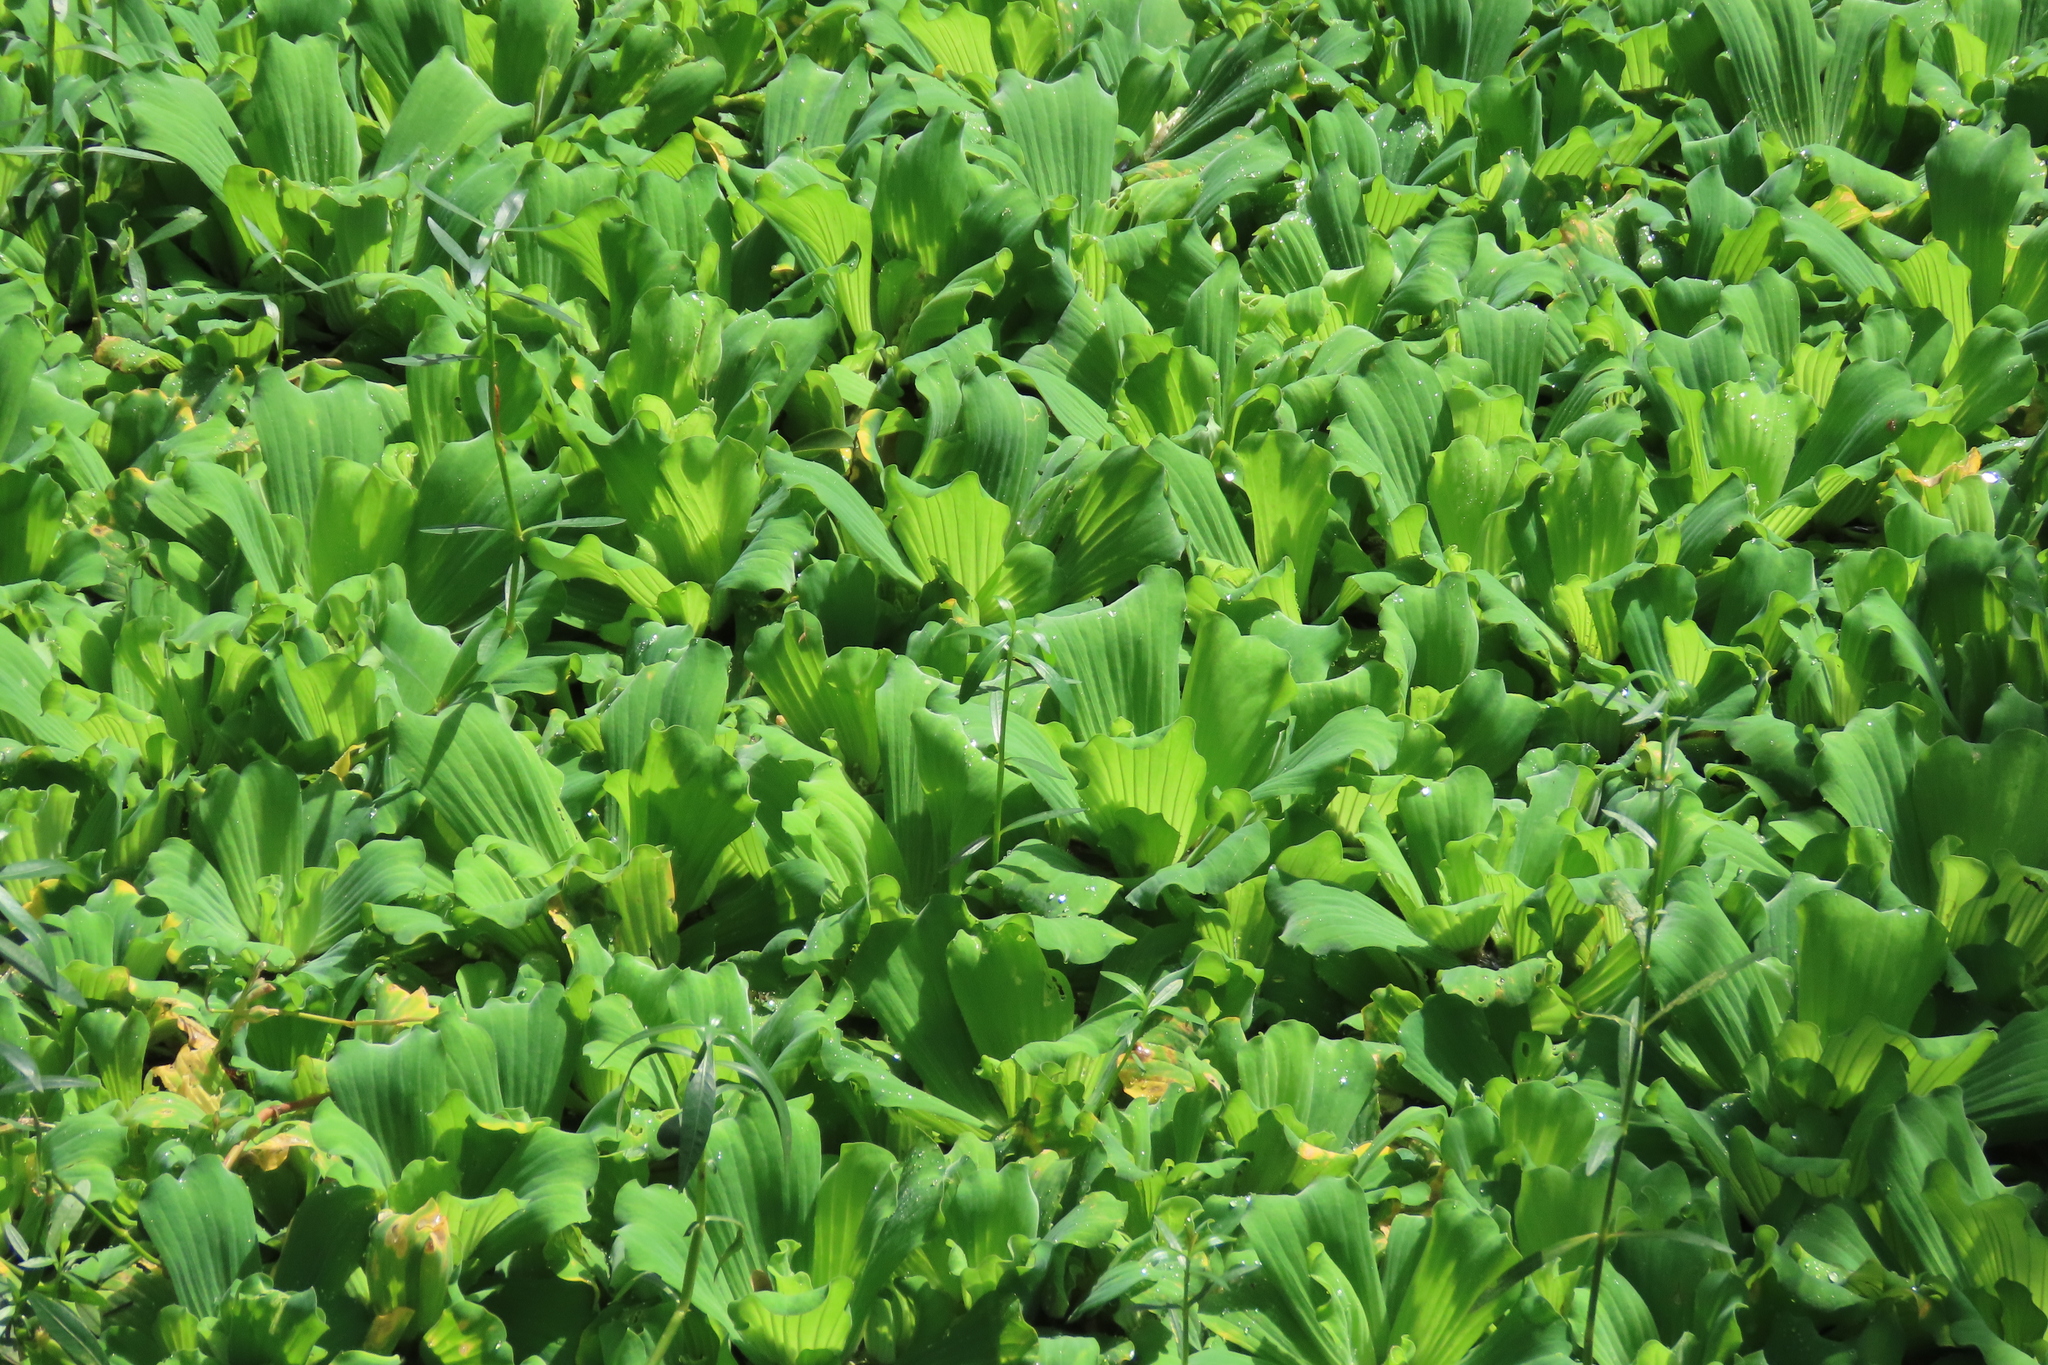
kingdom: Plantae
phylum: Tracheophyta
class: Liliopsida
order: Alismatales
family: Araceae
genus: Pistia
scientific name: Pistia stratiotes
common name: Water lettuce
